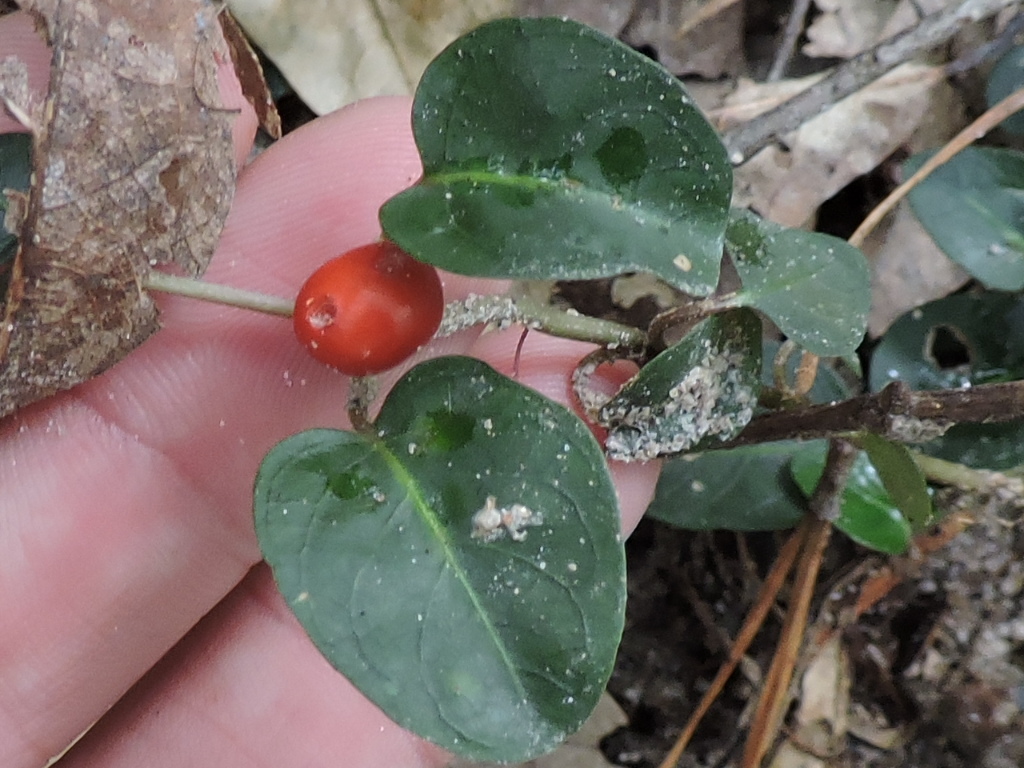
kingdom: Plantae
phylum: Tracheophyta
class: Magnoliopsida
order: Gentianales
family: Rubiaceae
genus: Mitchella
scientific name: Mitchella repens
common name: Partridge-berry
